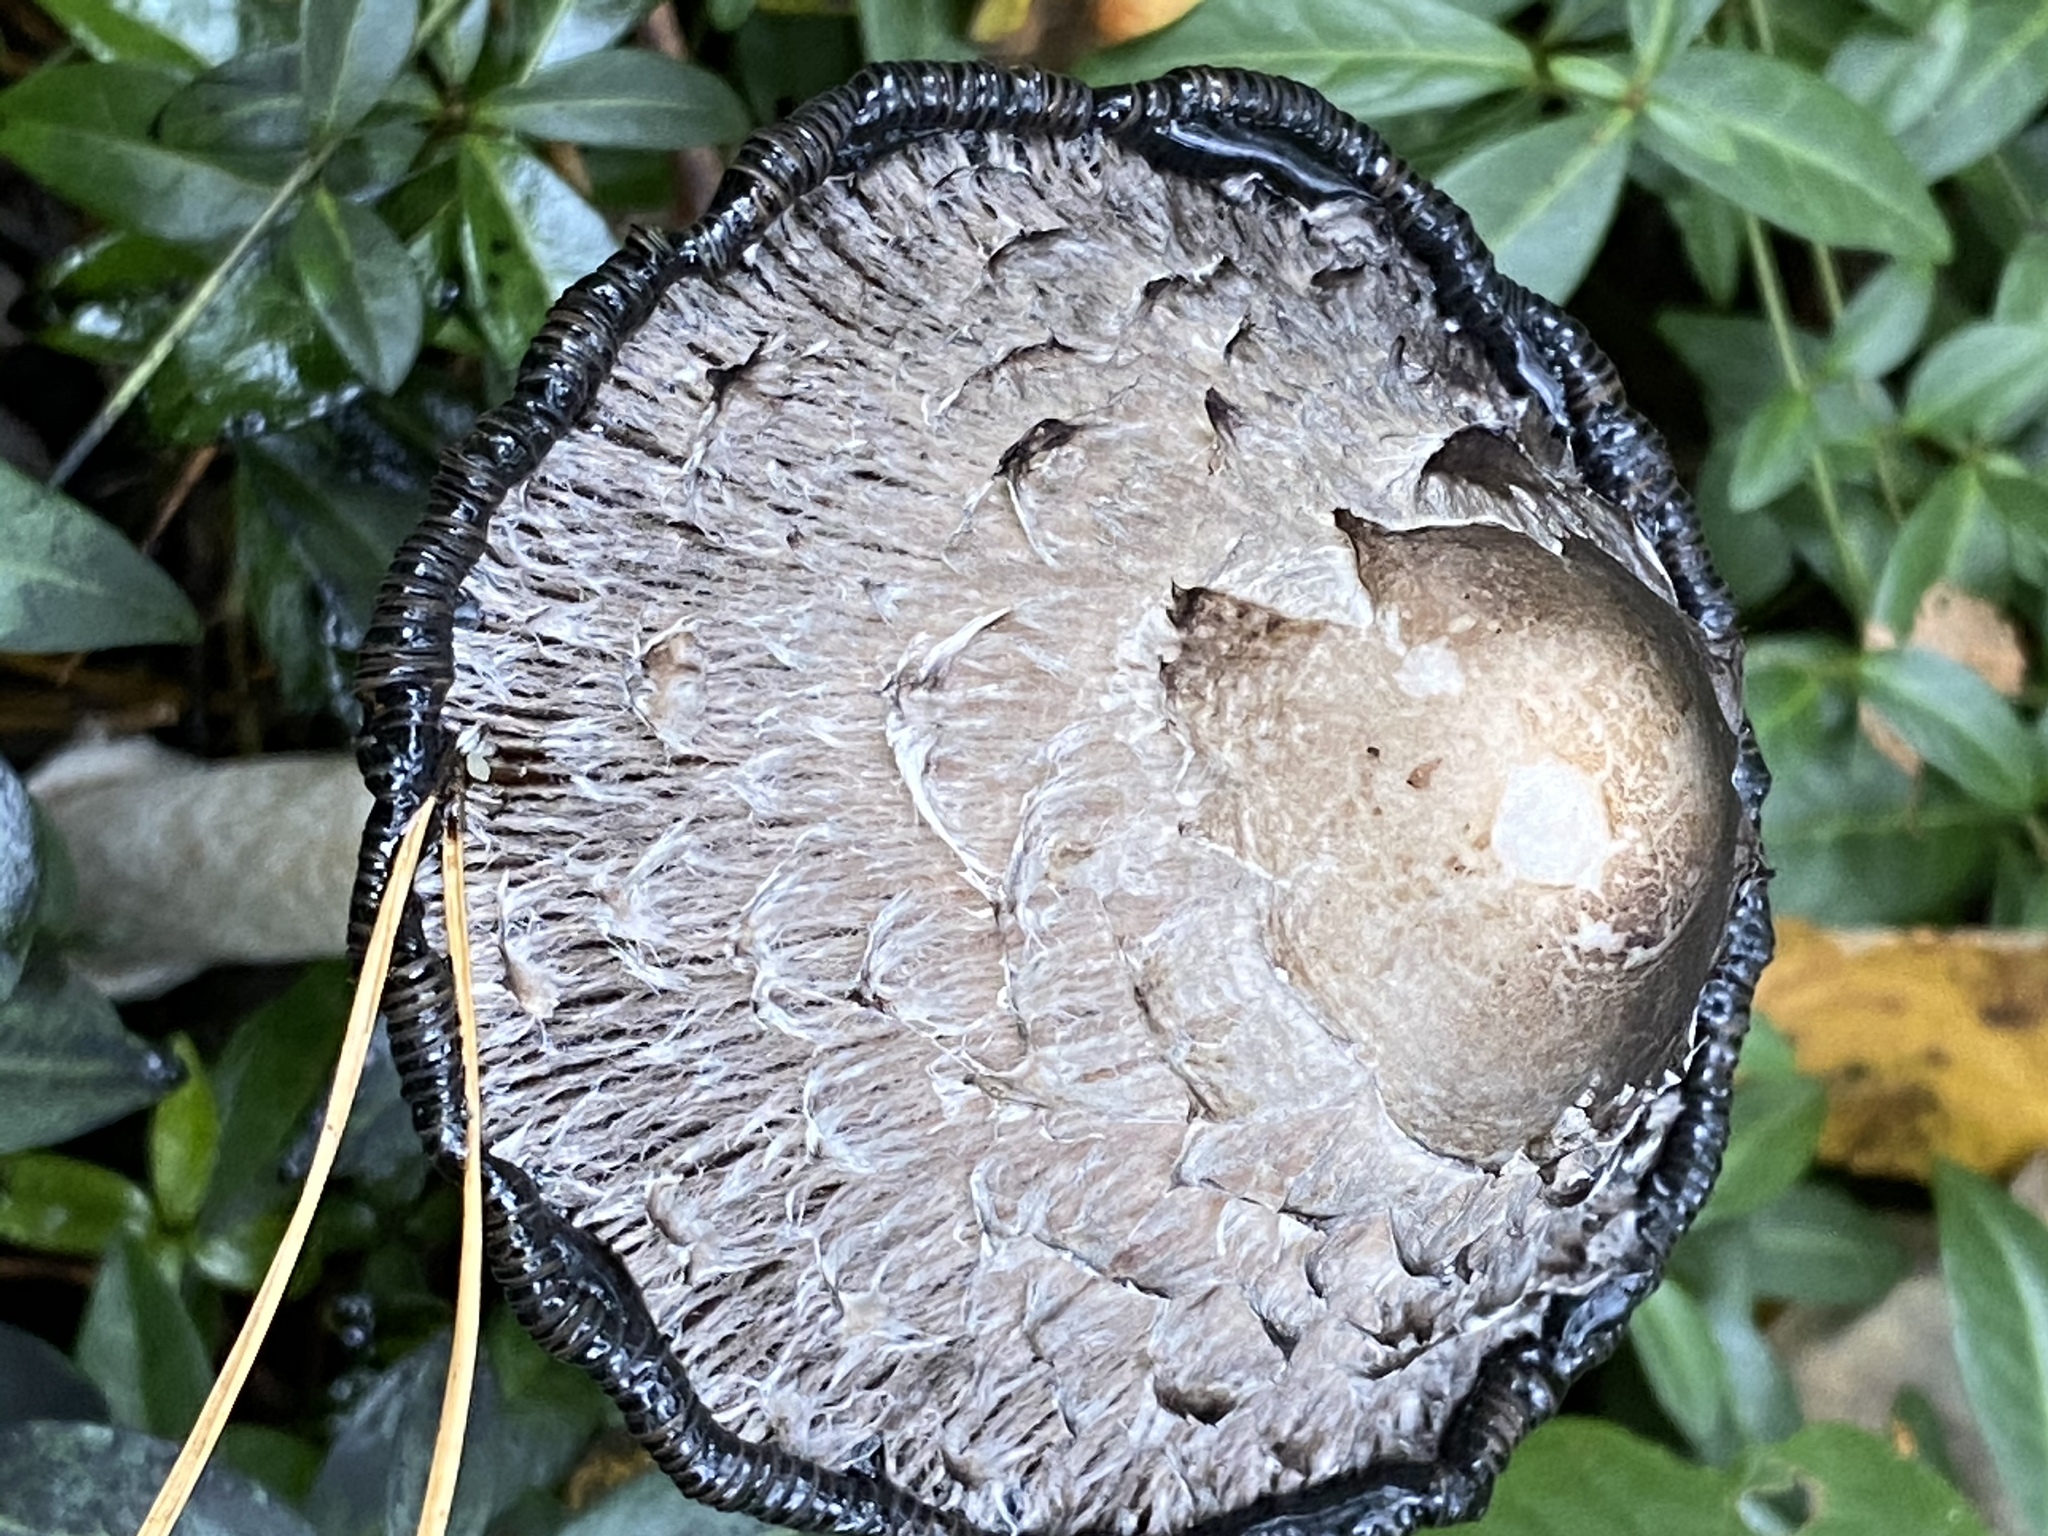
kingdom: Fungi
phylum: Basidiomycota
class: Agaricomycetes
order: Agaricales
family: Agaricaceae
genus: Coprinus
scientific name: Coprinus comatus
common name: Lawyer's wig
